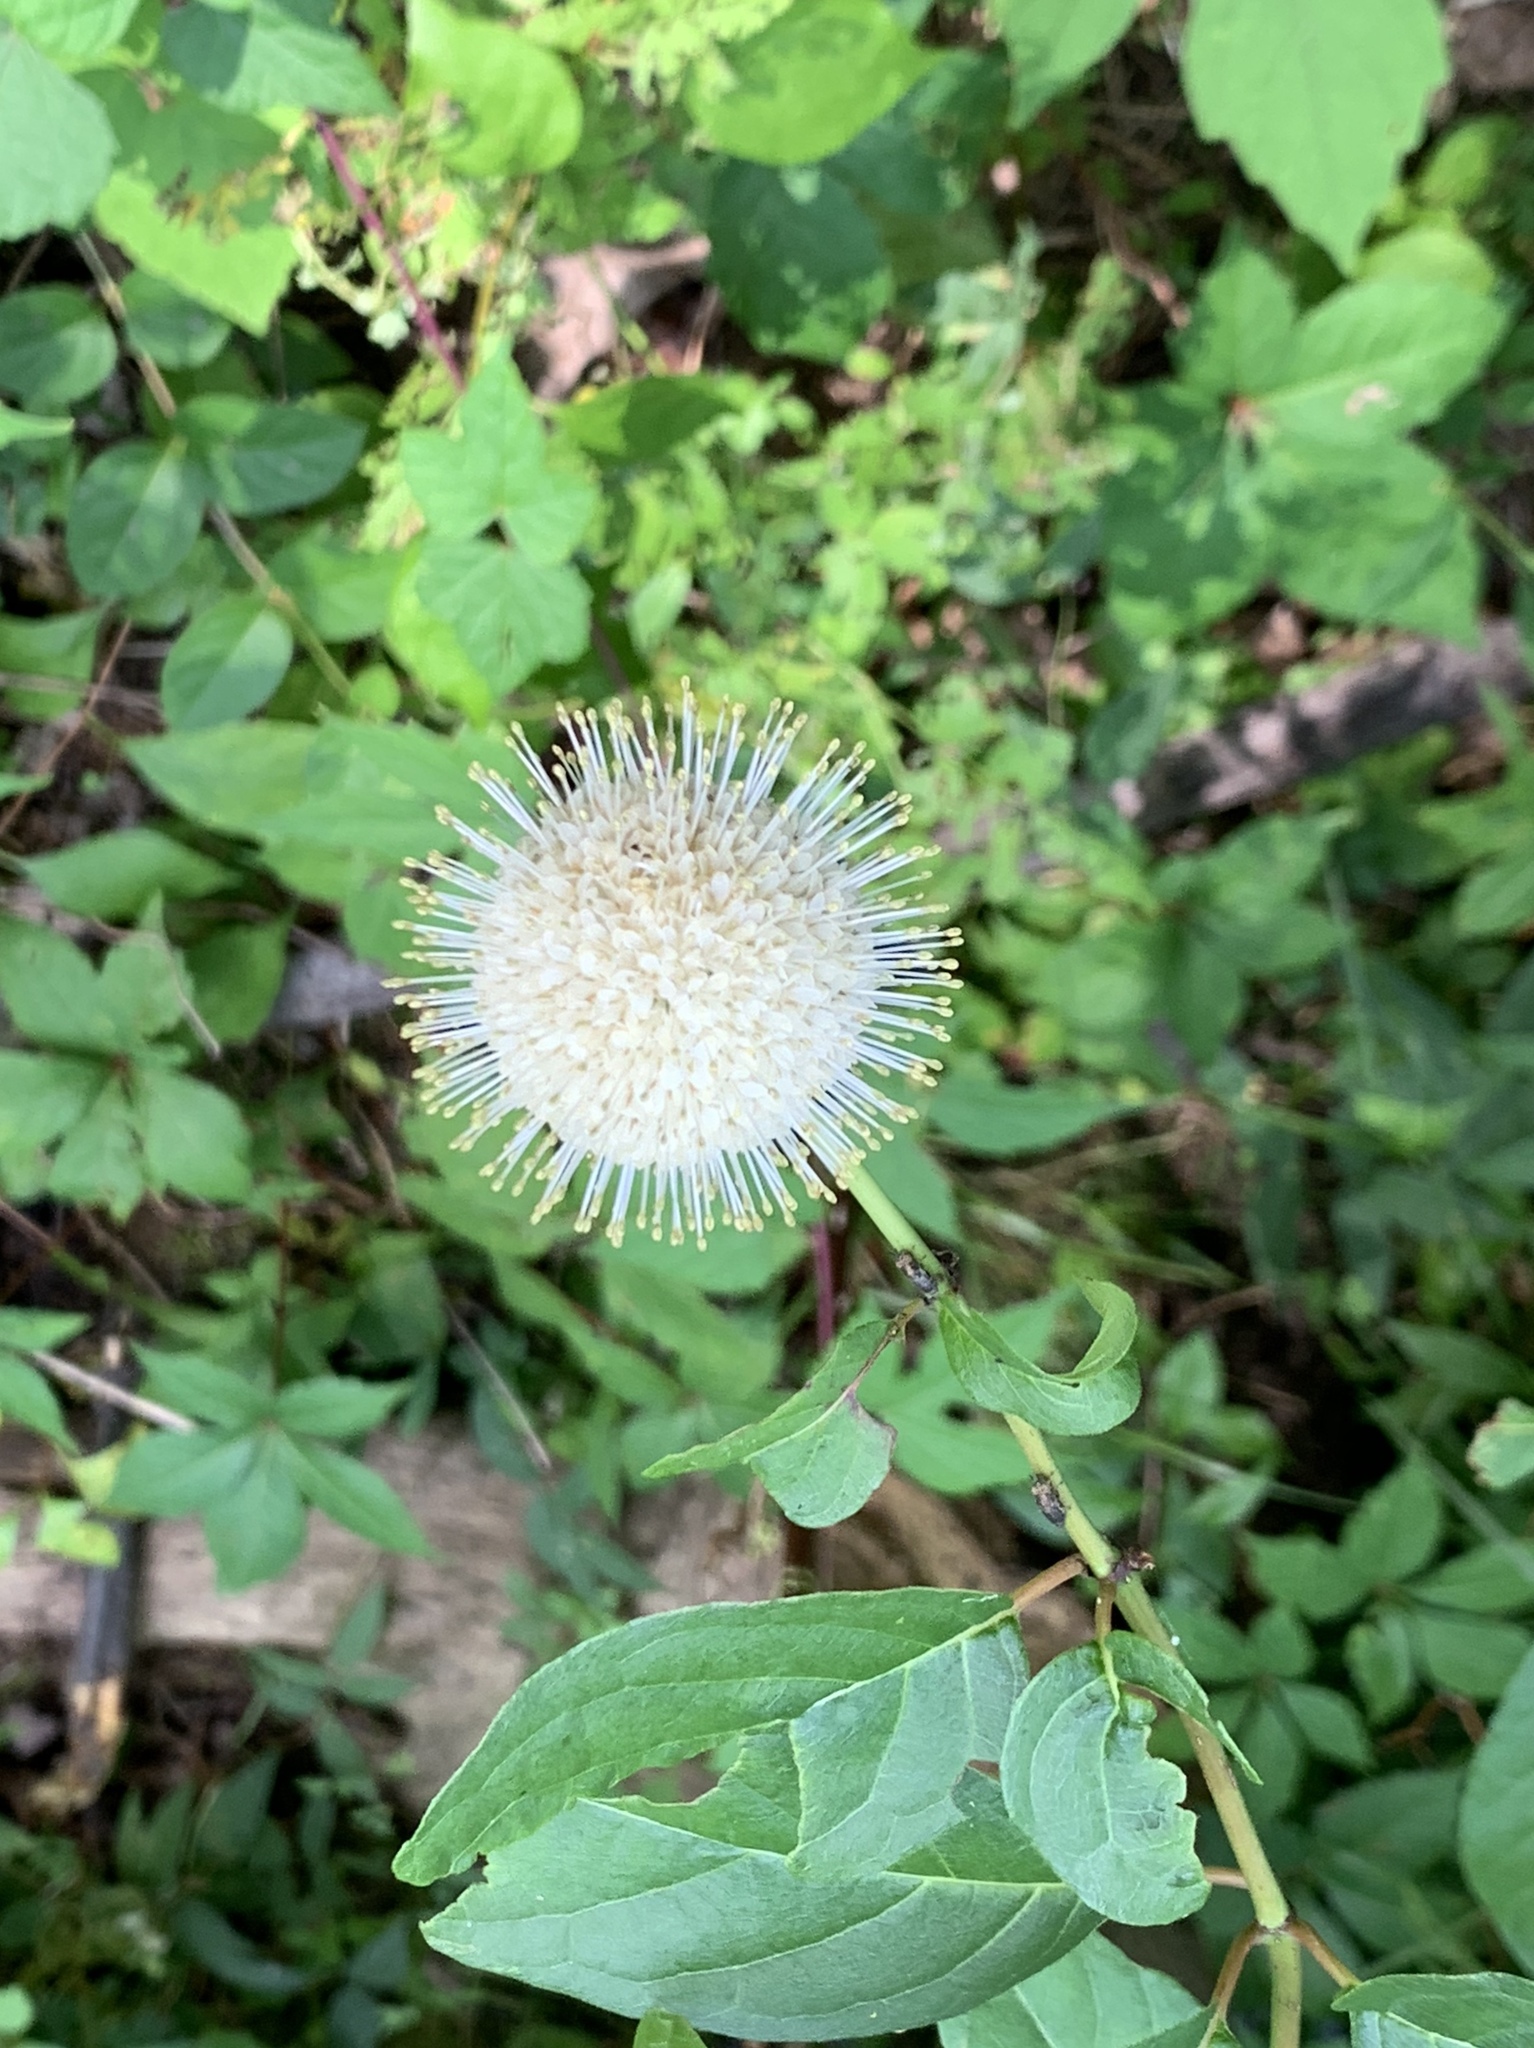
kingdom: Plantae
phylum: Tracheophyta
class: Magnoliopsida
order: Gentianales
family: Rubiaceae
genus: Cephalanthus
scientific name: Cephalanthus occidentalis
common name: Button-willow
